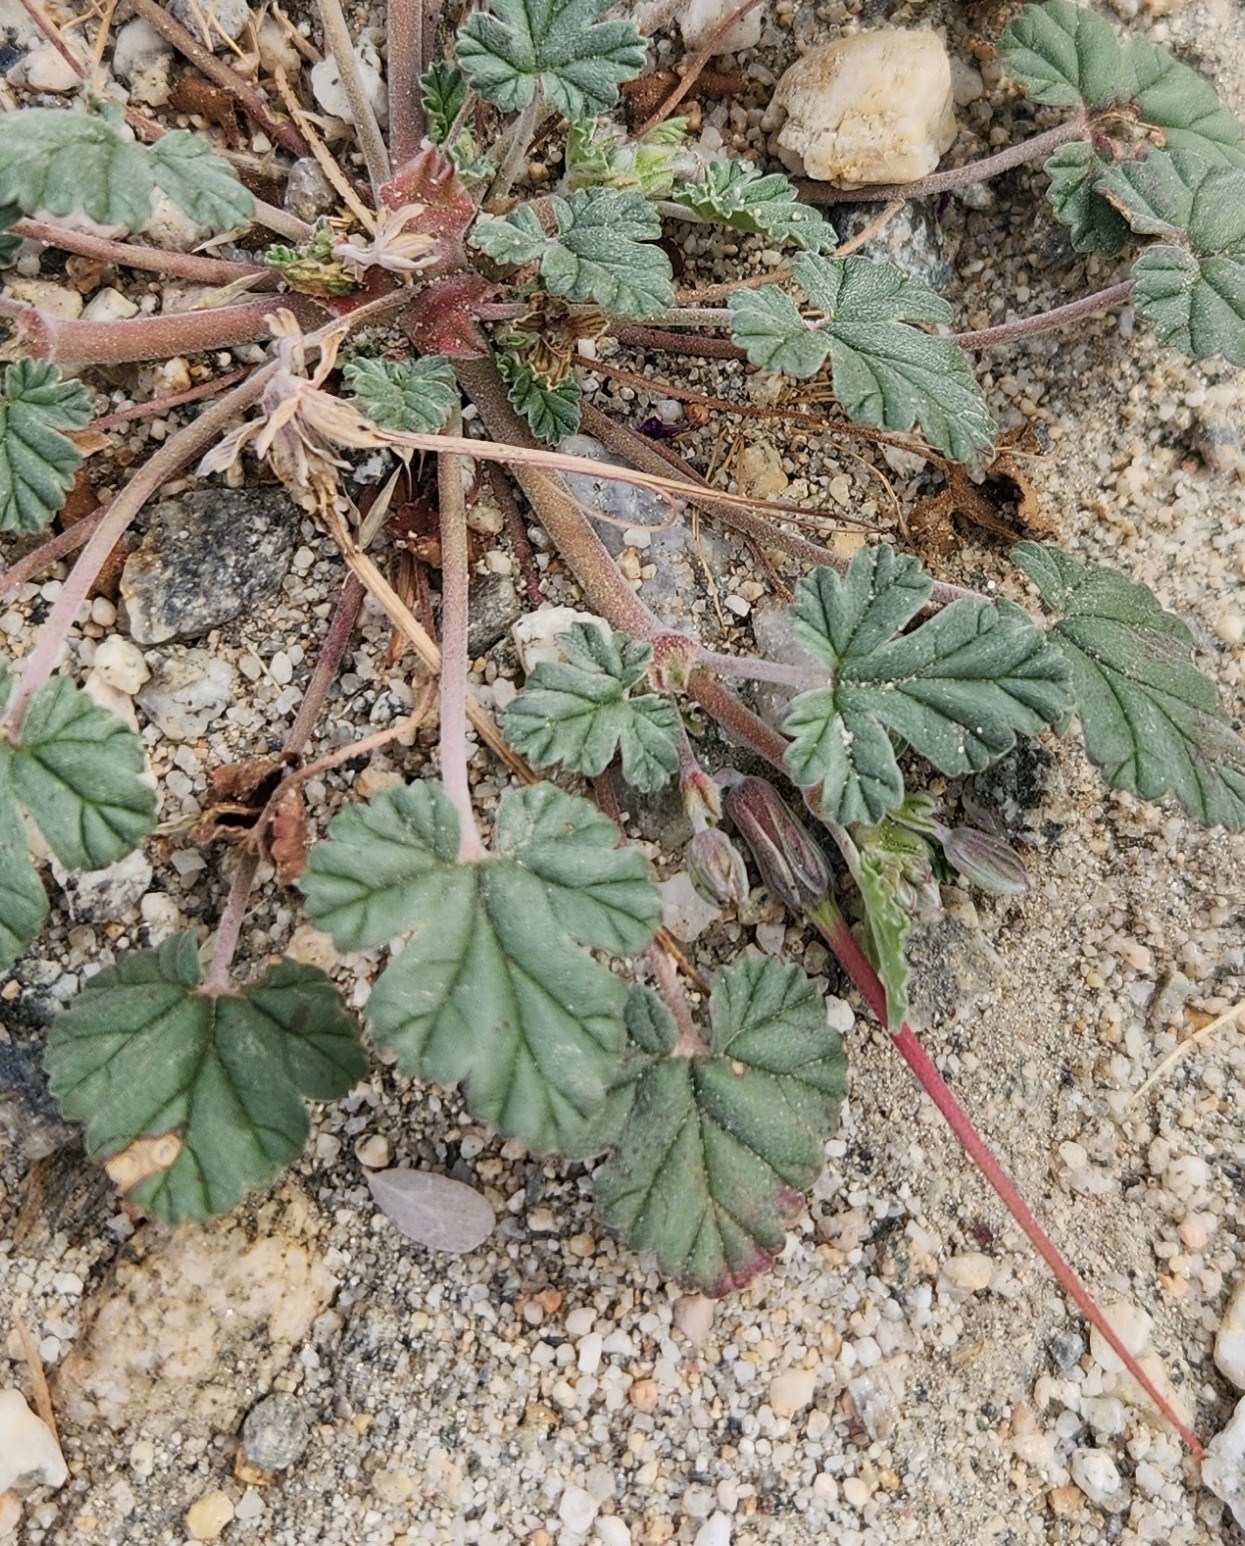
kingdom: Plantae
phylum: Tracheophyta
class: Magnoliopsida
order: Geraniales
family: Geraniaceae
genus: Erodium
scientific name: Erodium texanum
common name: Texas stork's-bill
